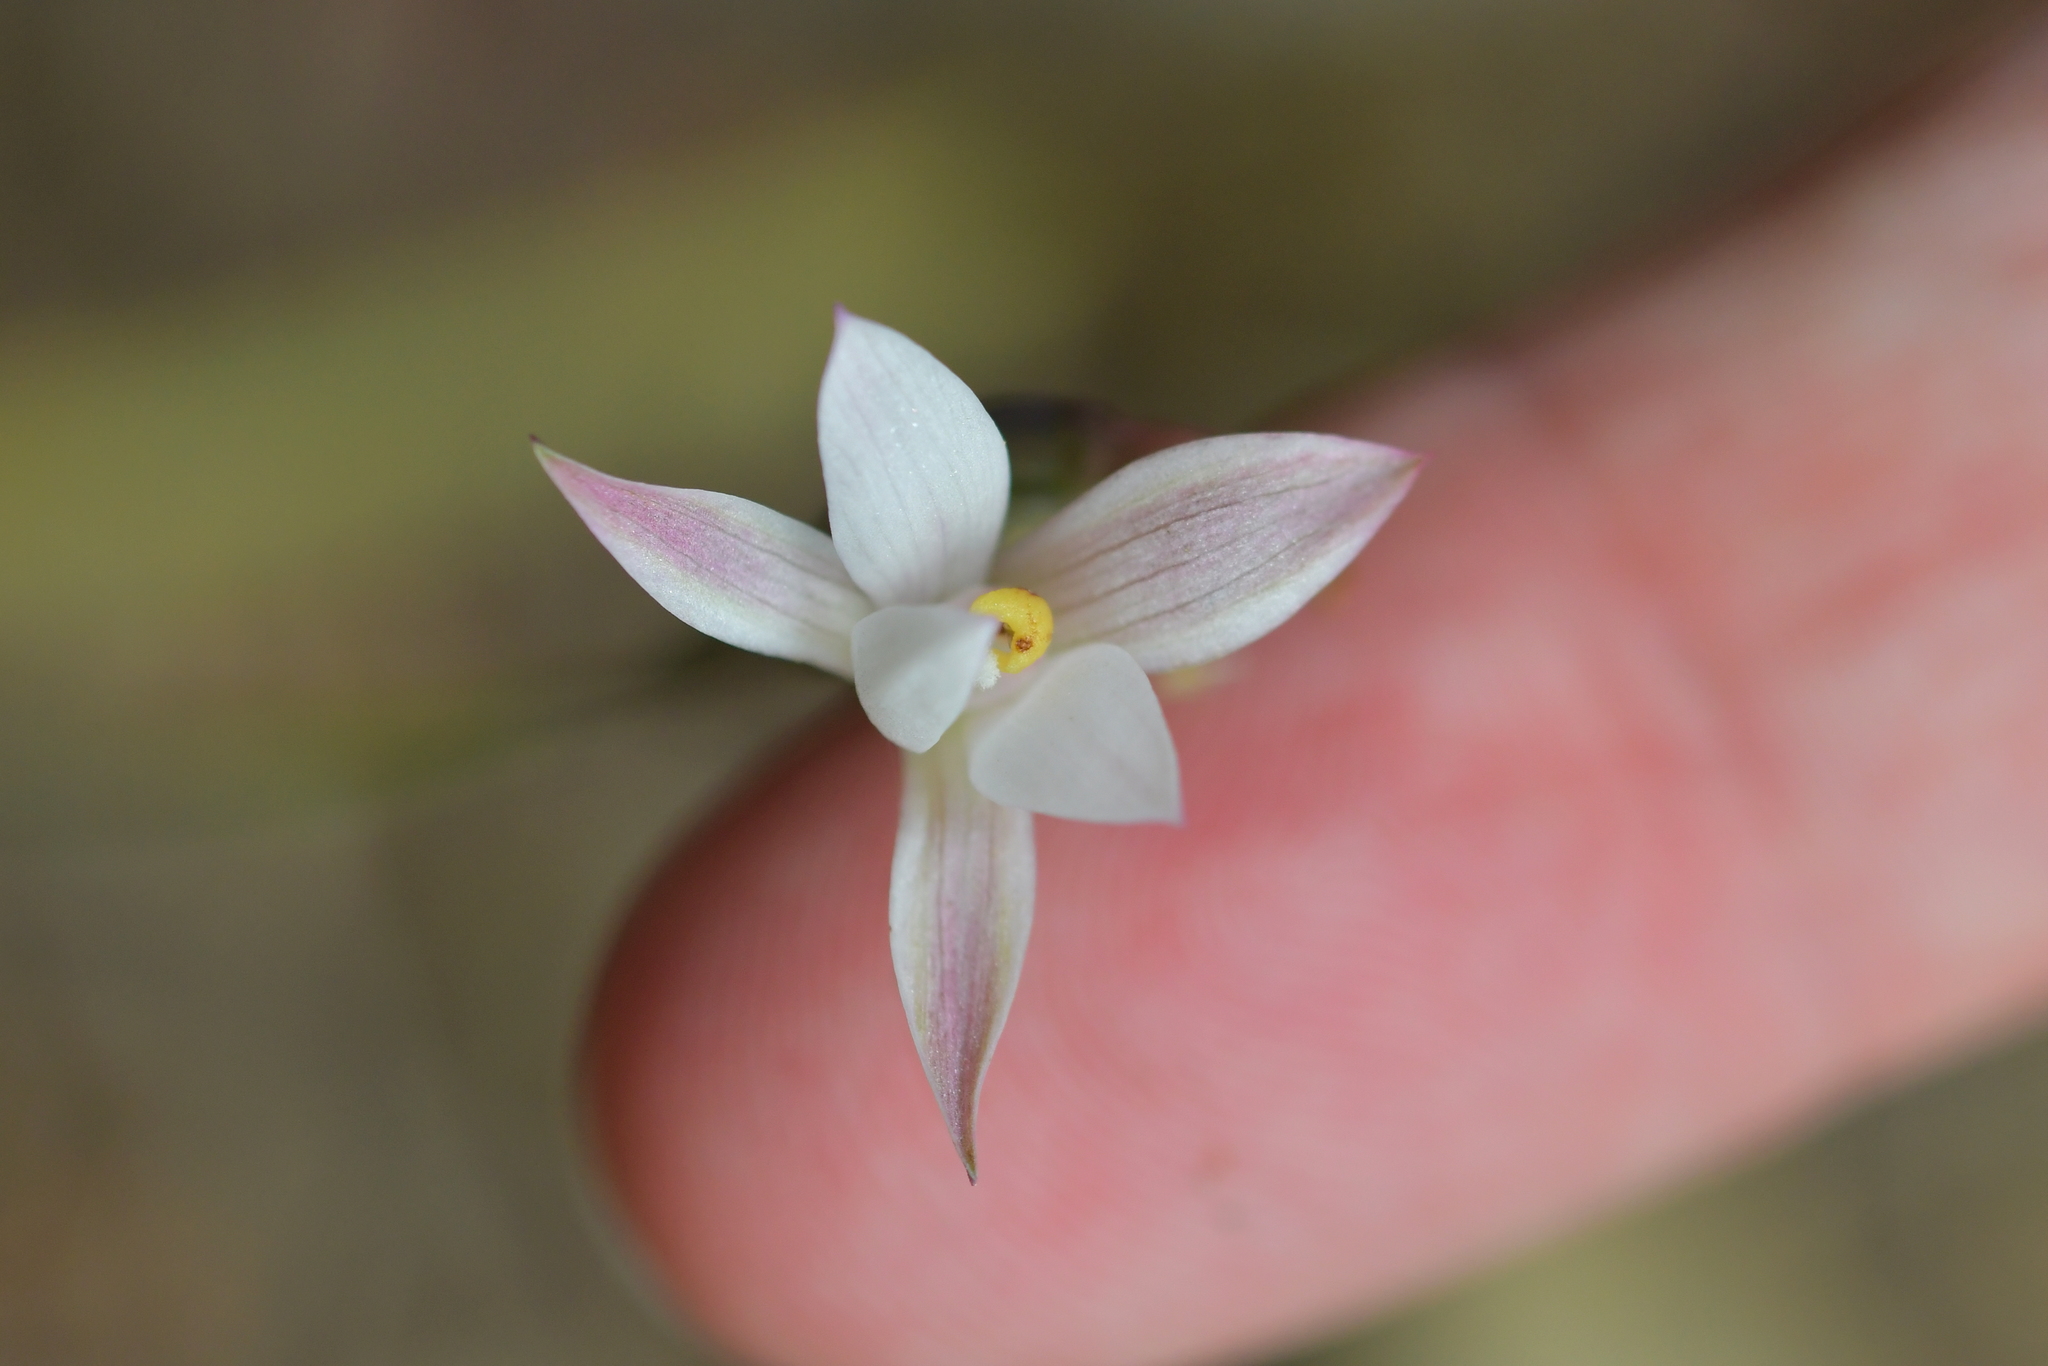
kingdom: Plantae
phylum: Tracheophyta
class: Liliopsida
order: Asparagales
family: Orchidaceae
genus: Thelymitra
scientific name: Thelymitra longifolia
